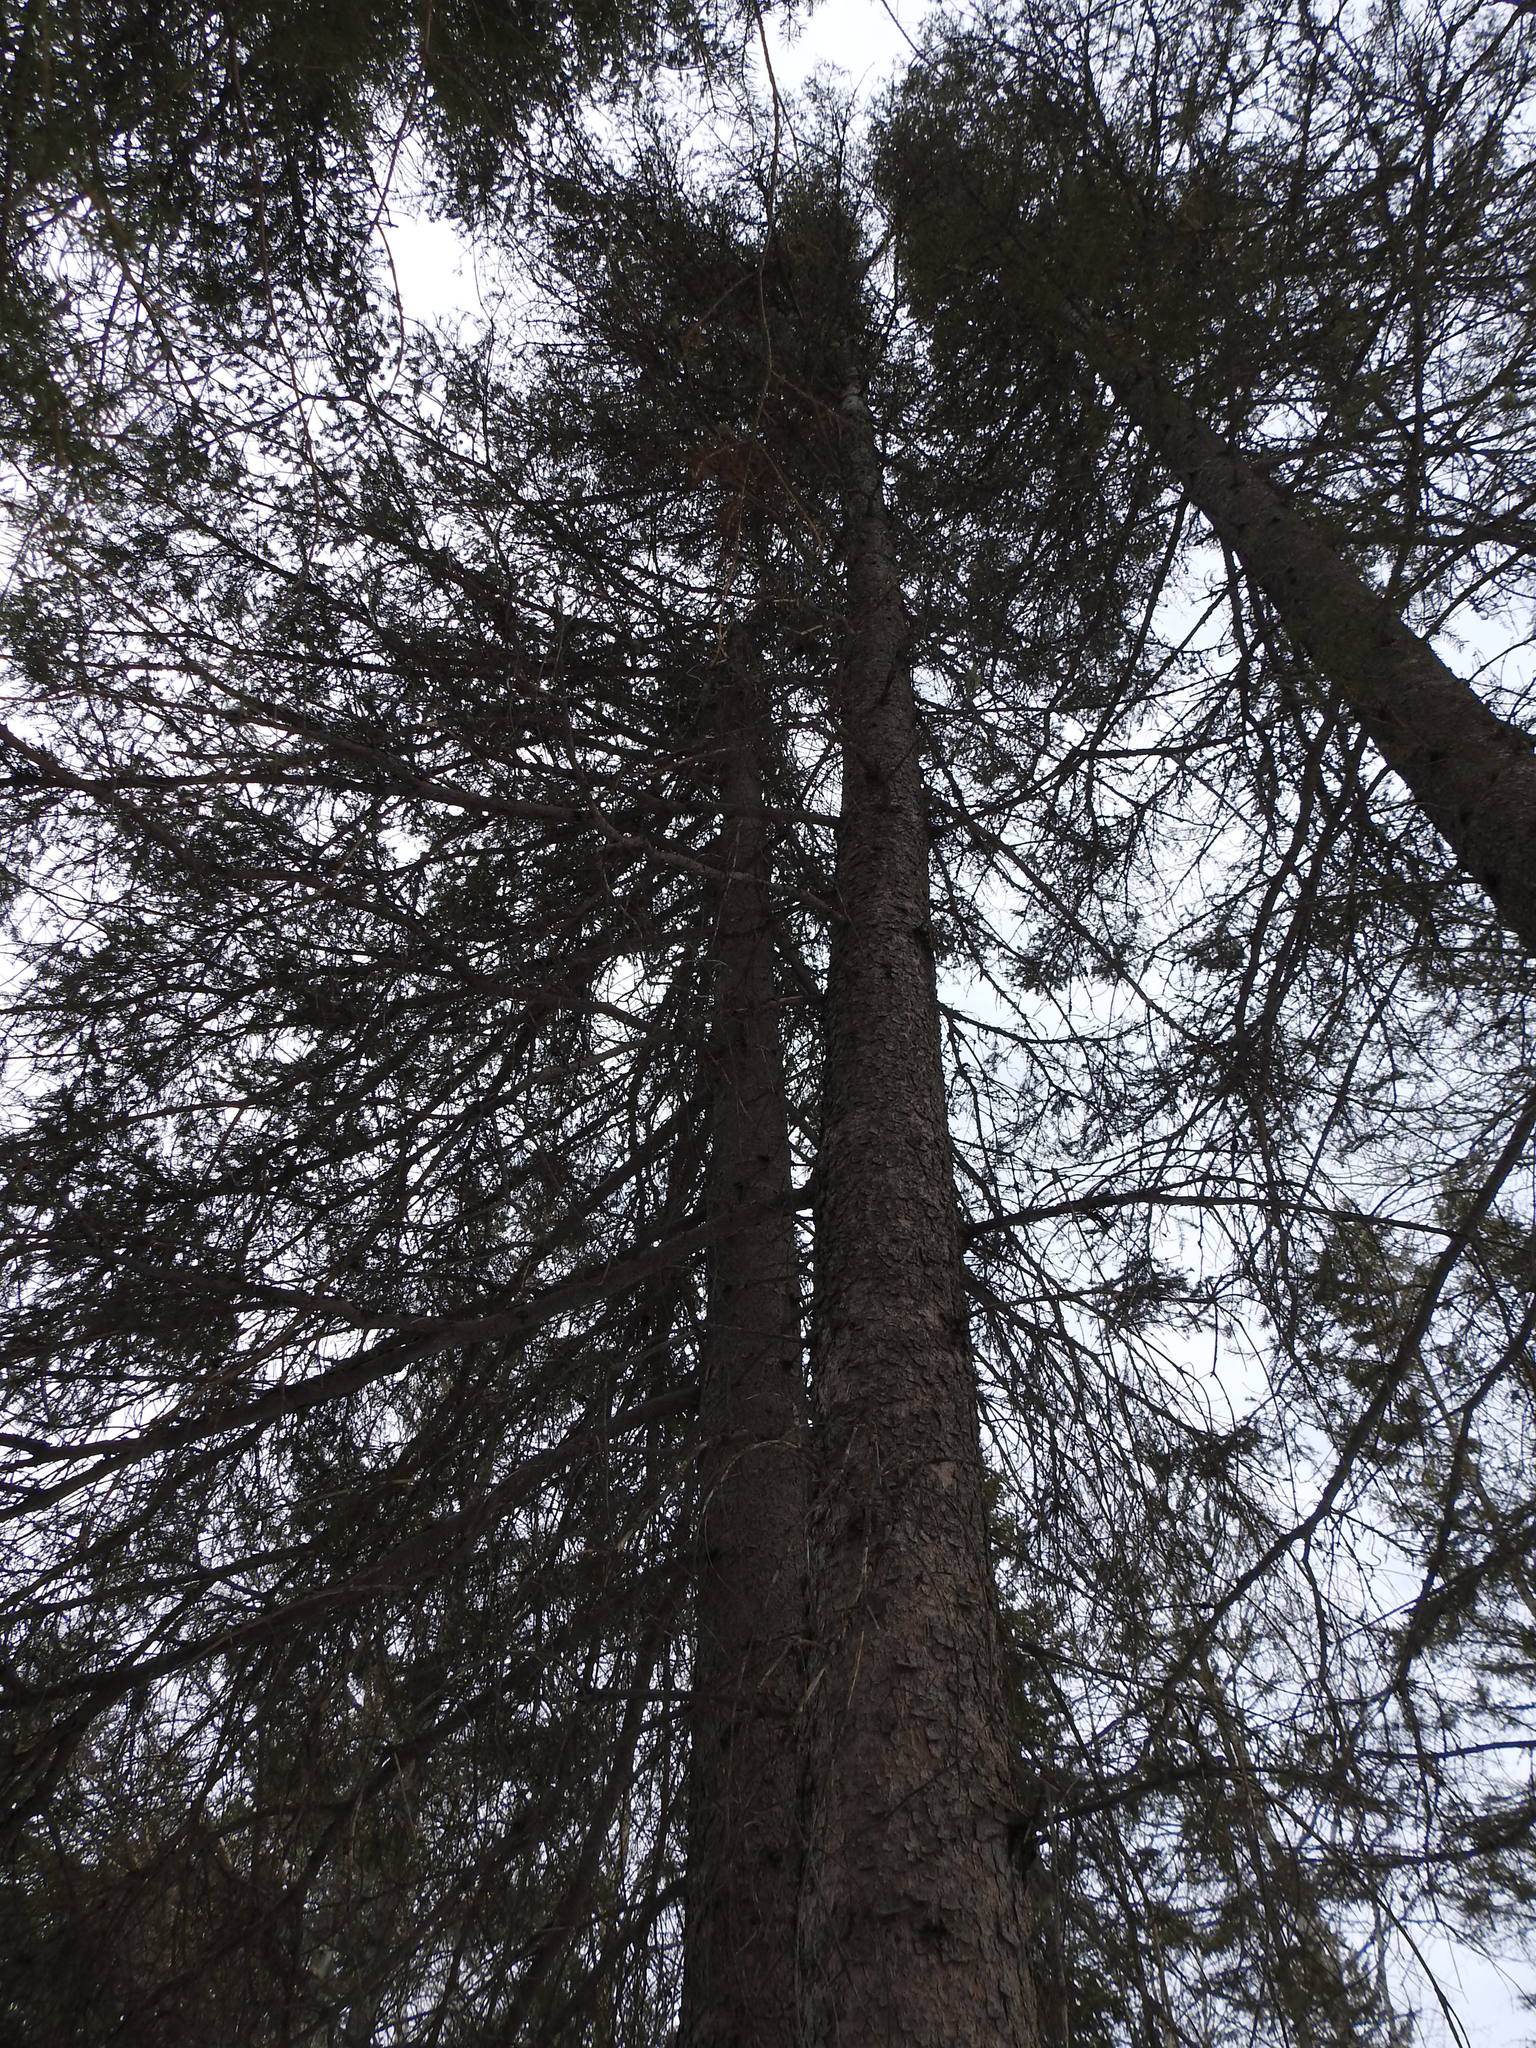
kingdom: Plantae
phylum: Tracheophyta
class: Pinopsida
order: Pinales
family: Pinaceae
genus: Picea
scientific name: Picea glauca
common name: White spruce
